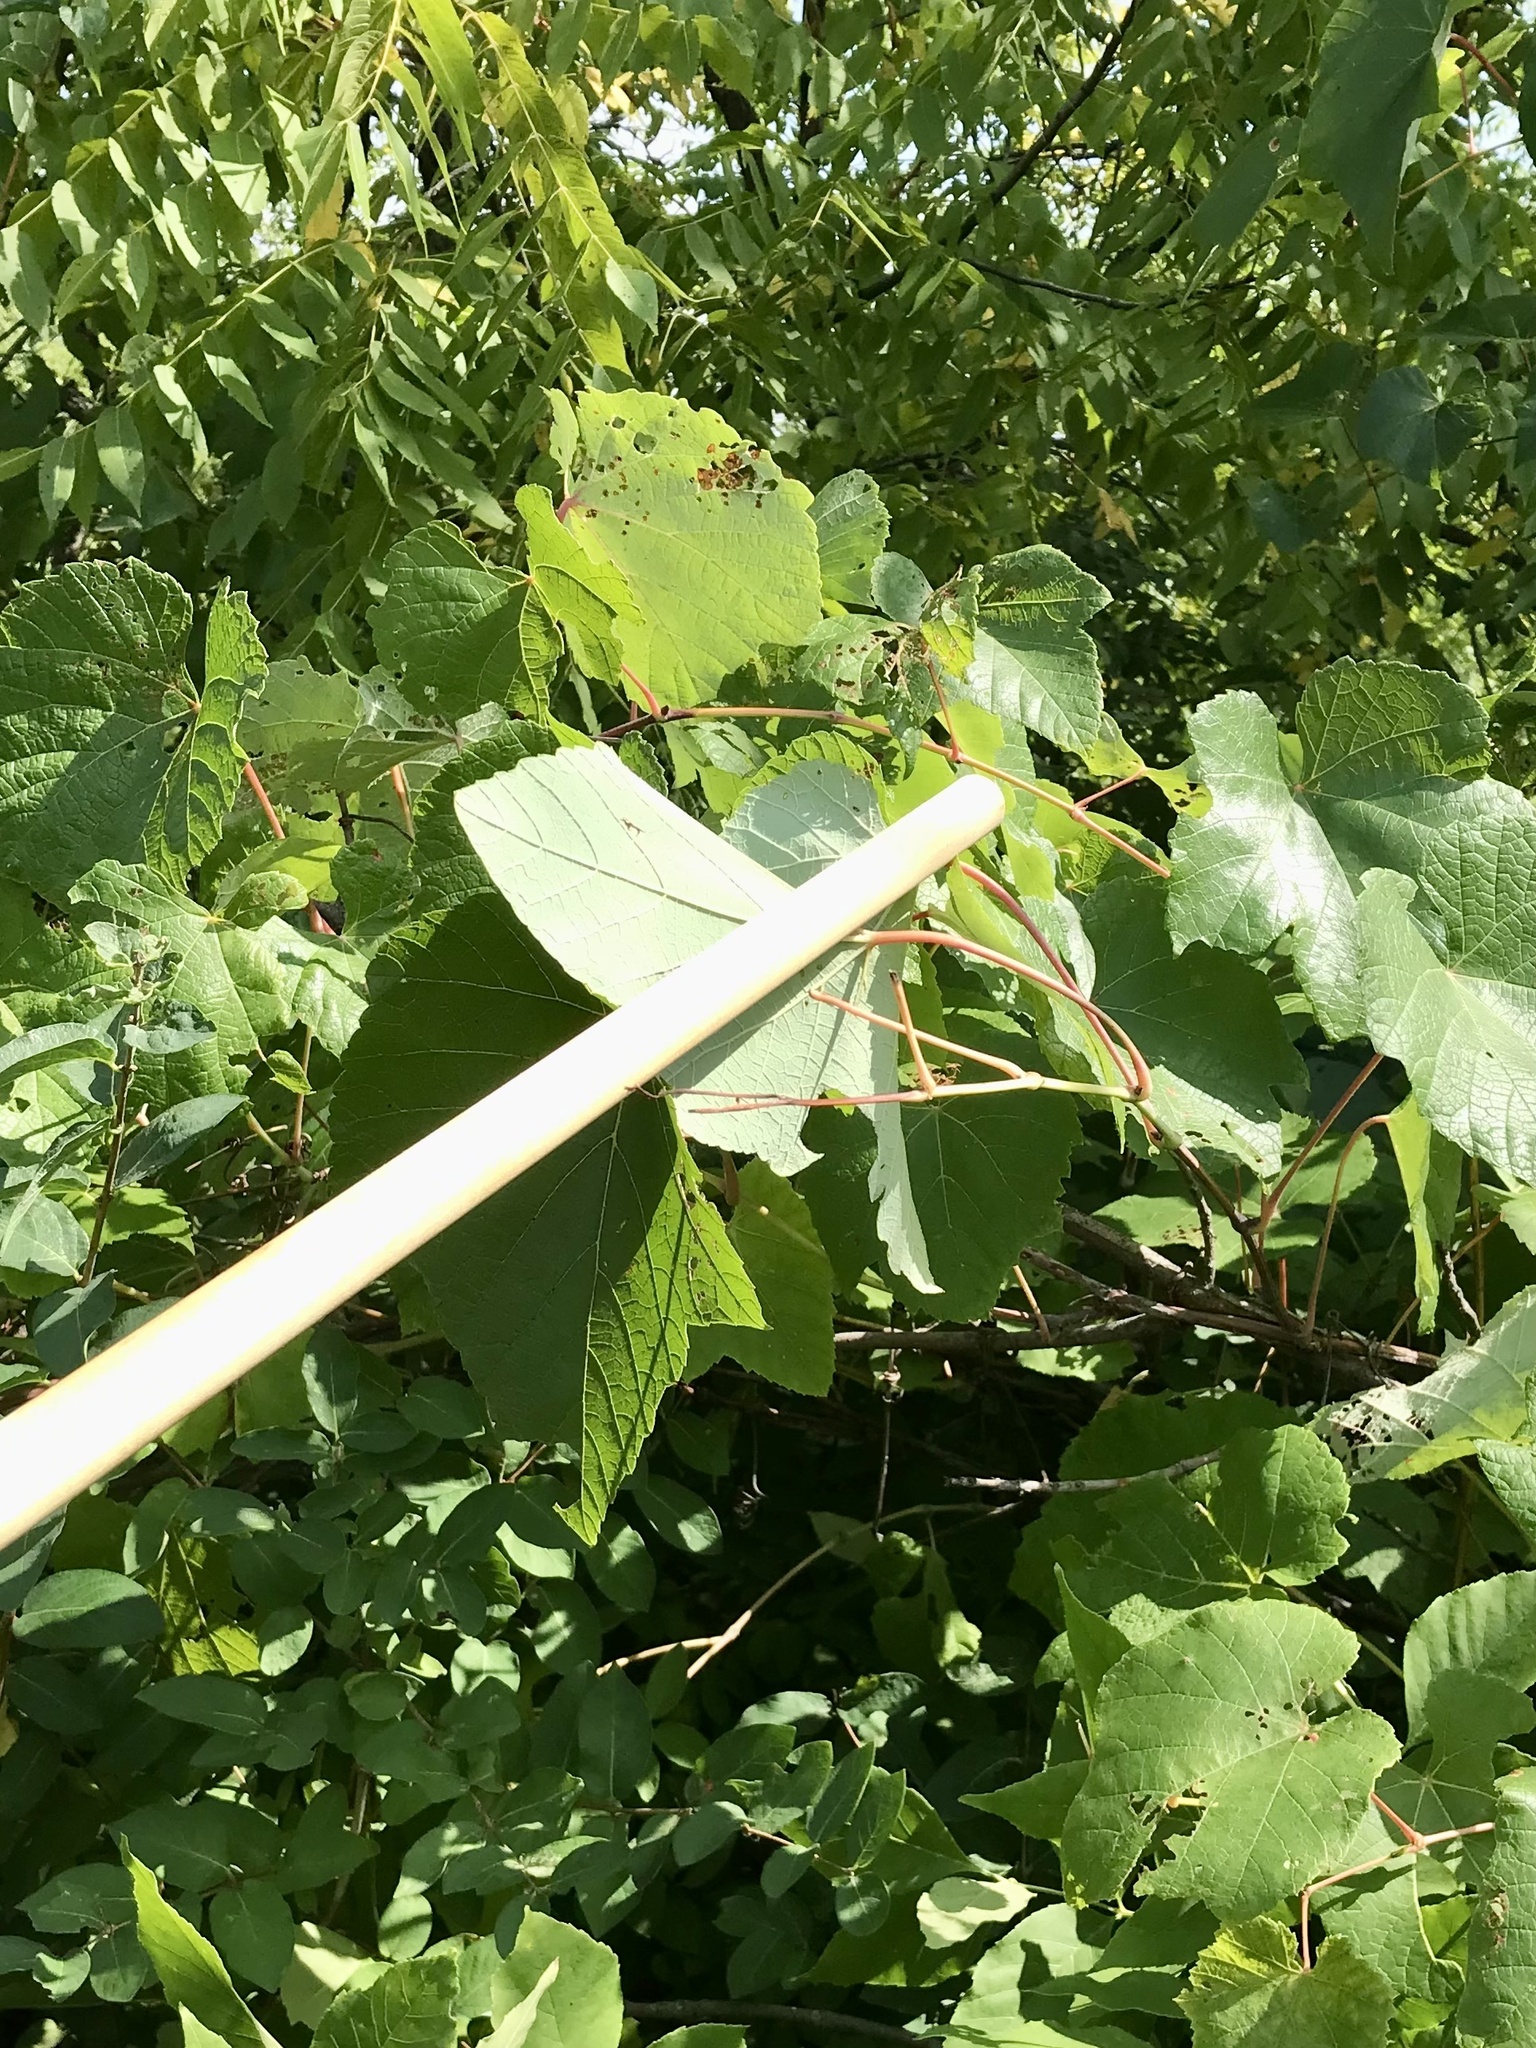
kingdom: Plantae
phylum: Tracheophyta
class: Magnoliopsida
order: Vitales
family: Vitaceae
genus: Vitis
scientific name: Vitis aestivalis
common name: Pigeon grape
